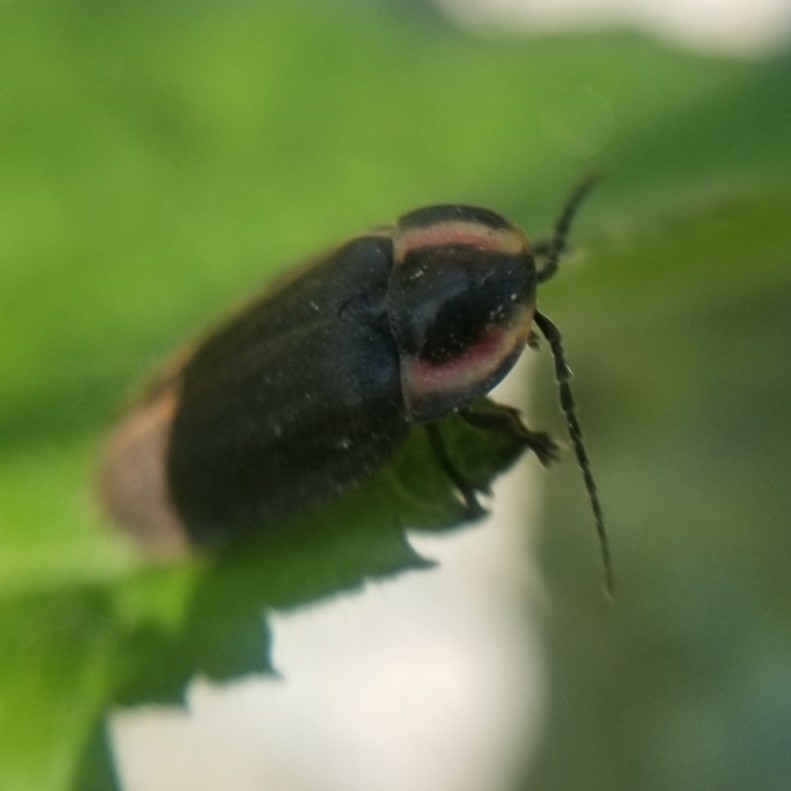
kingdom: Animalia
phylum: Arthropoda
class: Insecta
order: Coleoptera
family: Lampyridae
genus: Photinus
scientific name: Photinus corrusca
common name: Winter firefly
